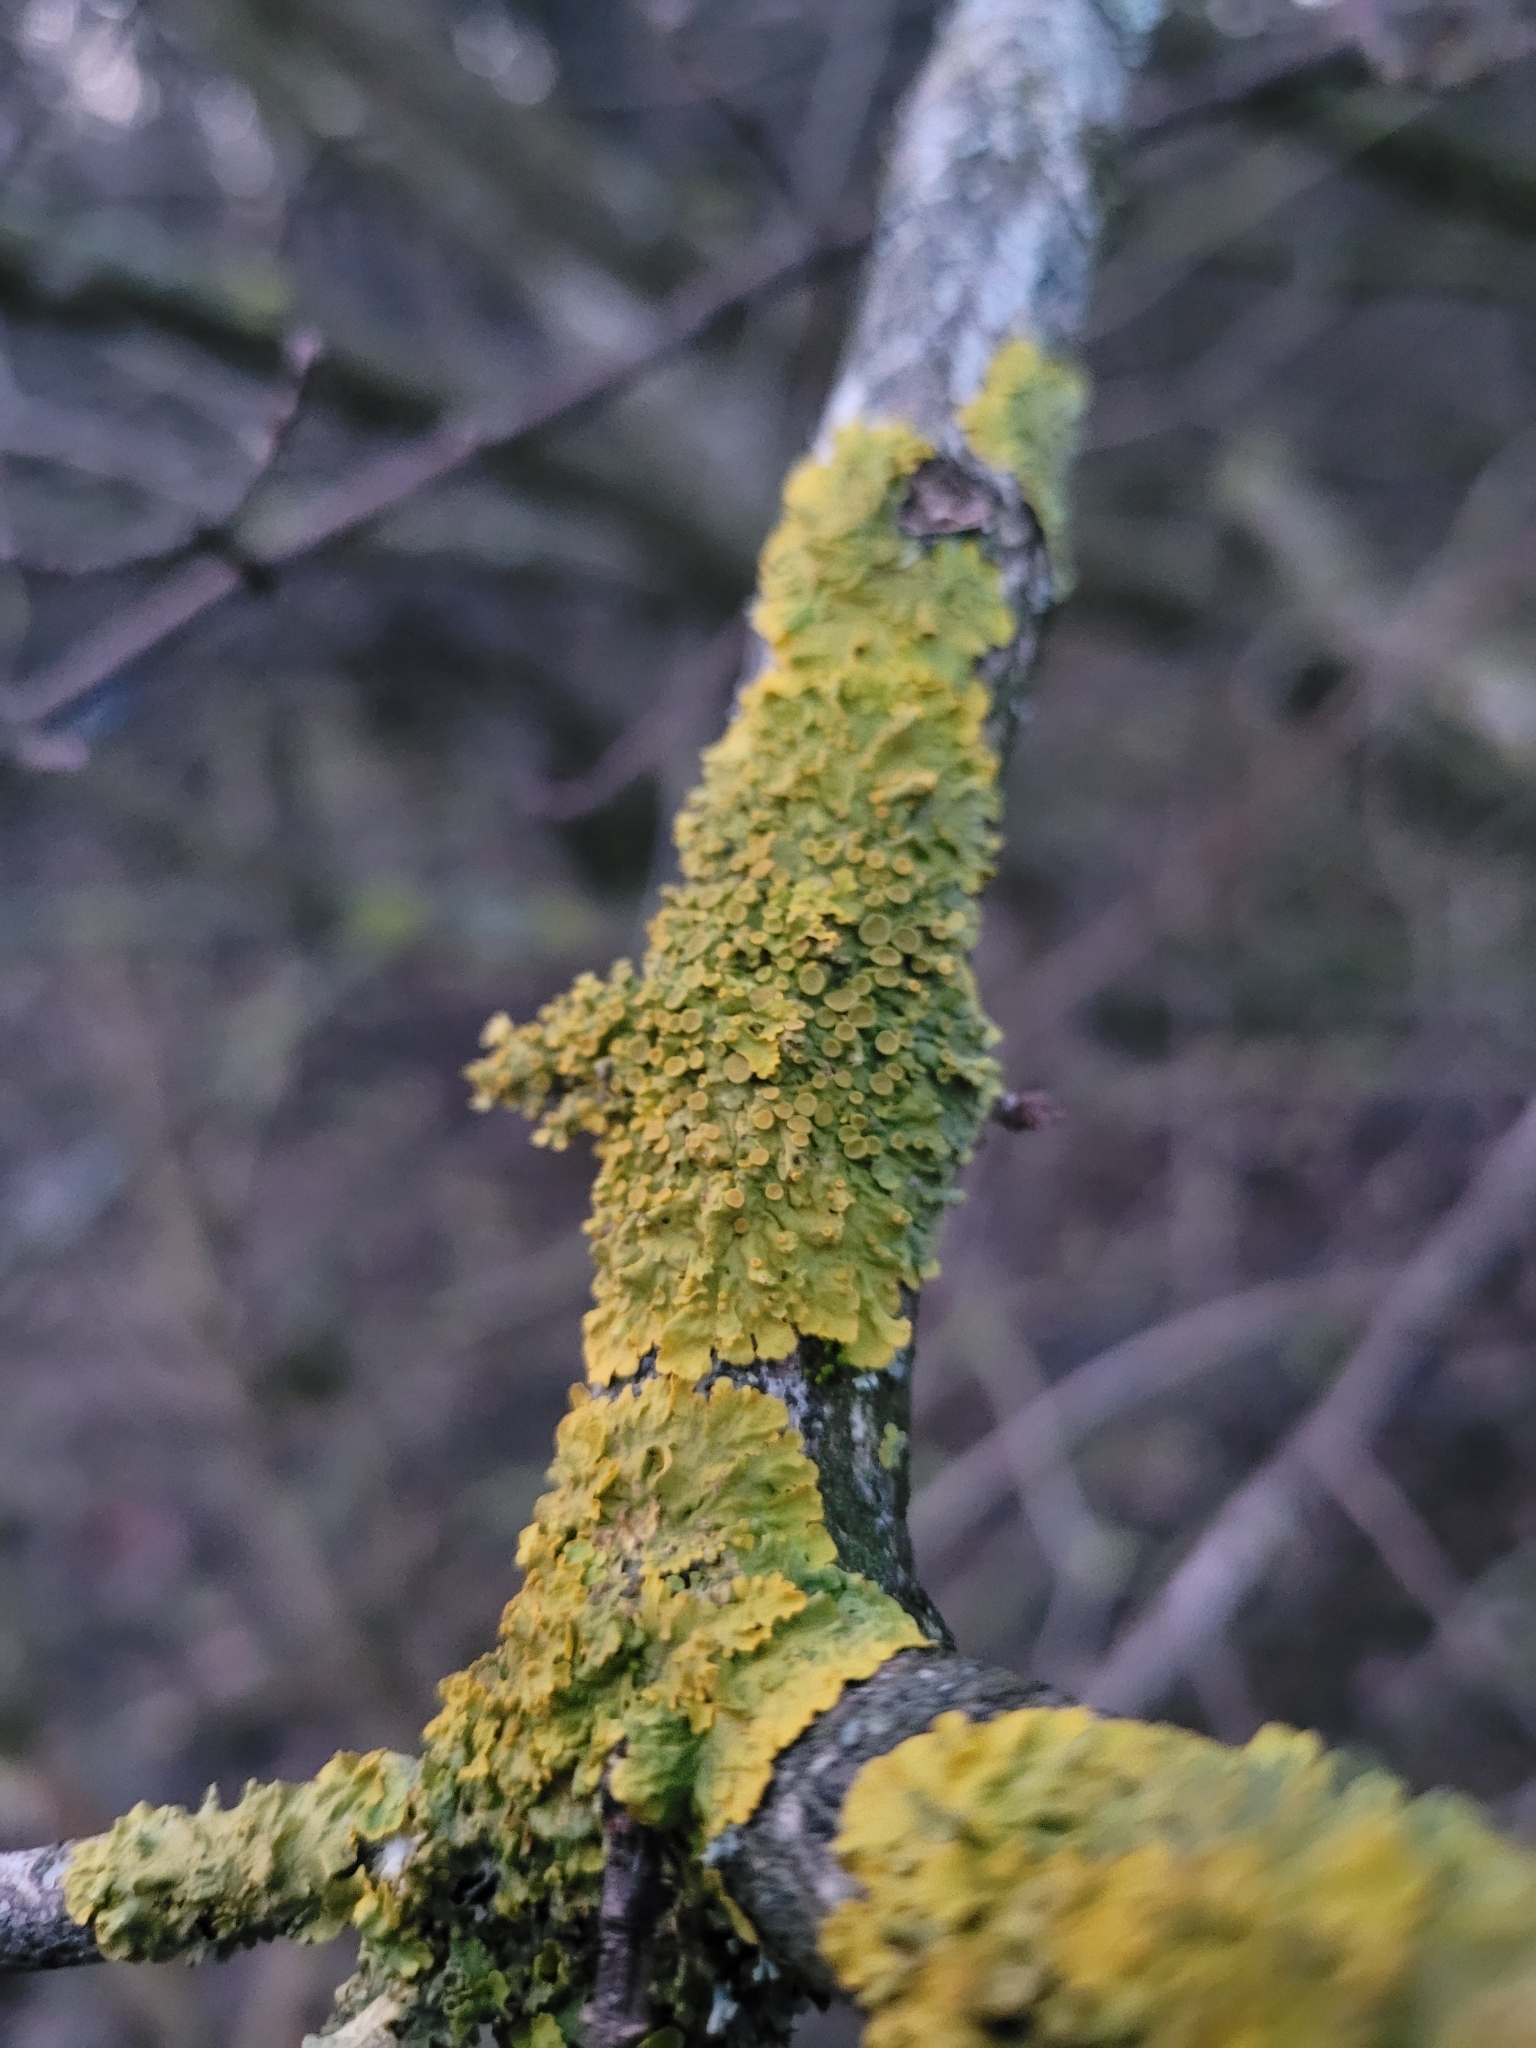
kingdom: Fungi
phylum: Ascomycota
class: Lecanoromycetes
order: Teloschistales
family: Teloschistaceae
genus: Xanthoria
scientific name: Xanthoria parietina
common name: Common orange lichen
